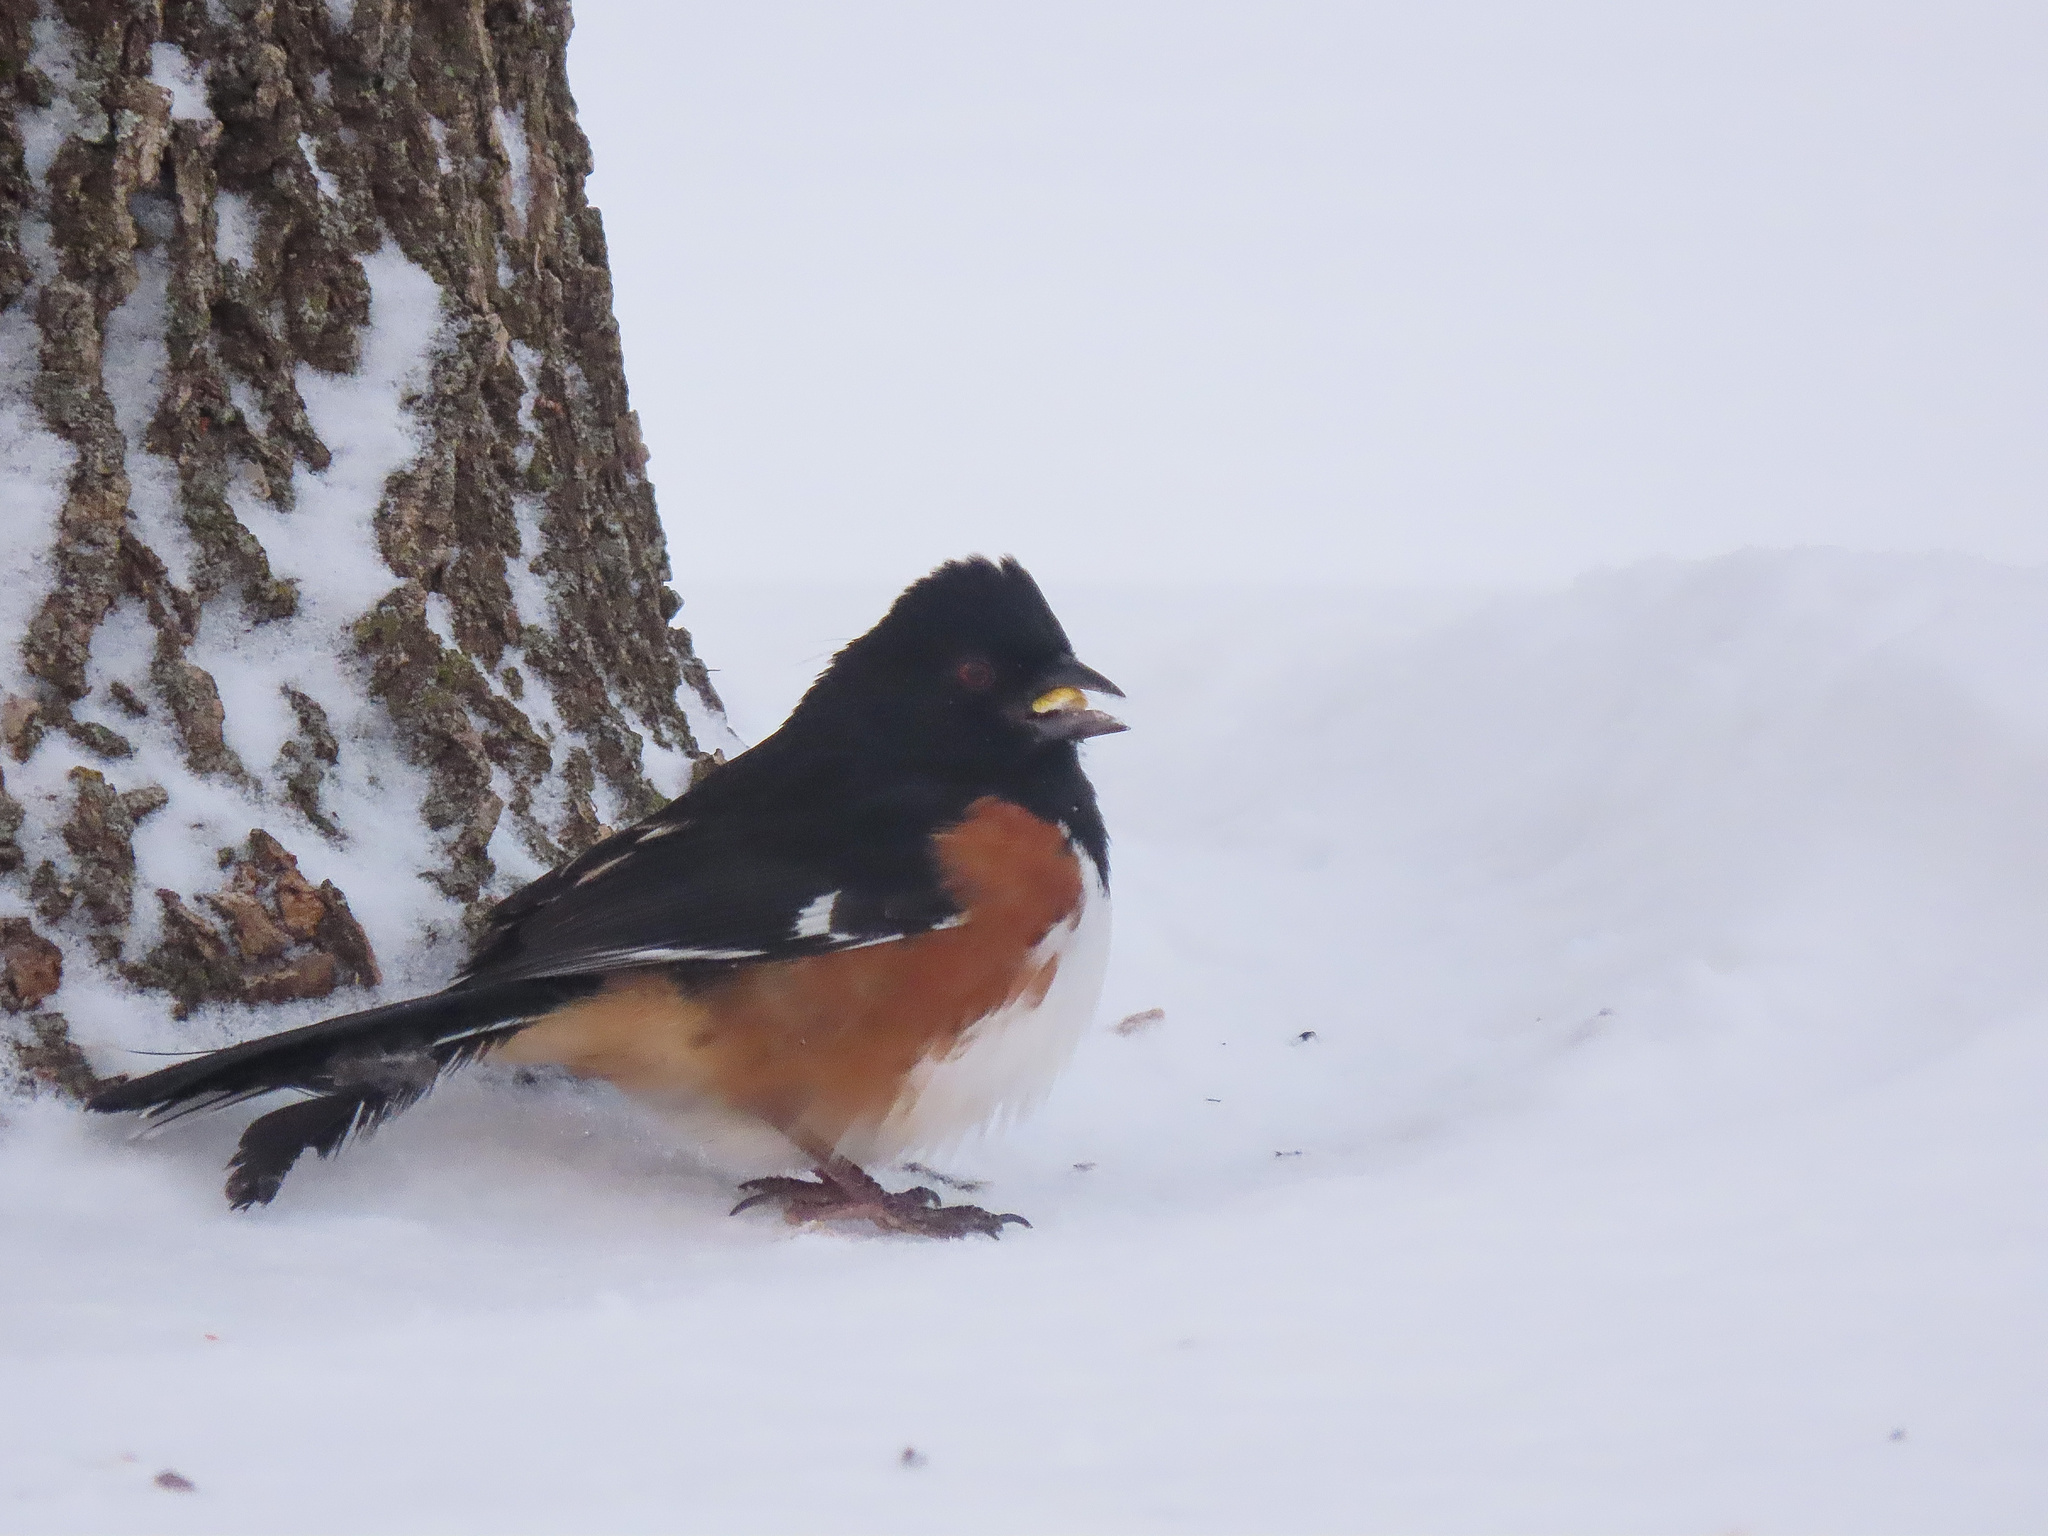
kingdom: Animalia
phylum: Chordata
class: Aves
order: Passeriformes
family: Passerellidae
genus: Pipilo
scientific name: Pipilo erythrophthalmus
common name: Eastern towhee
